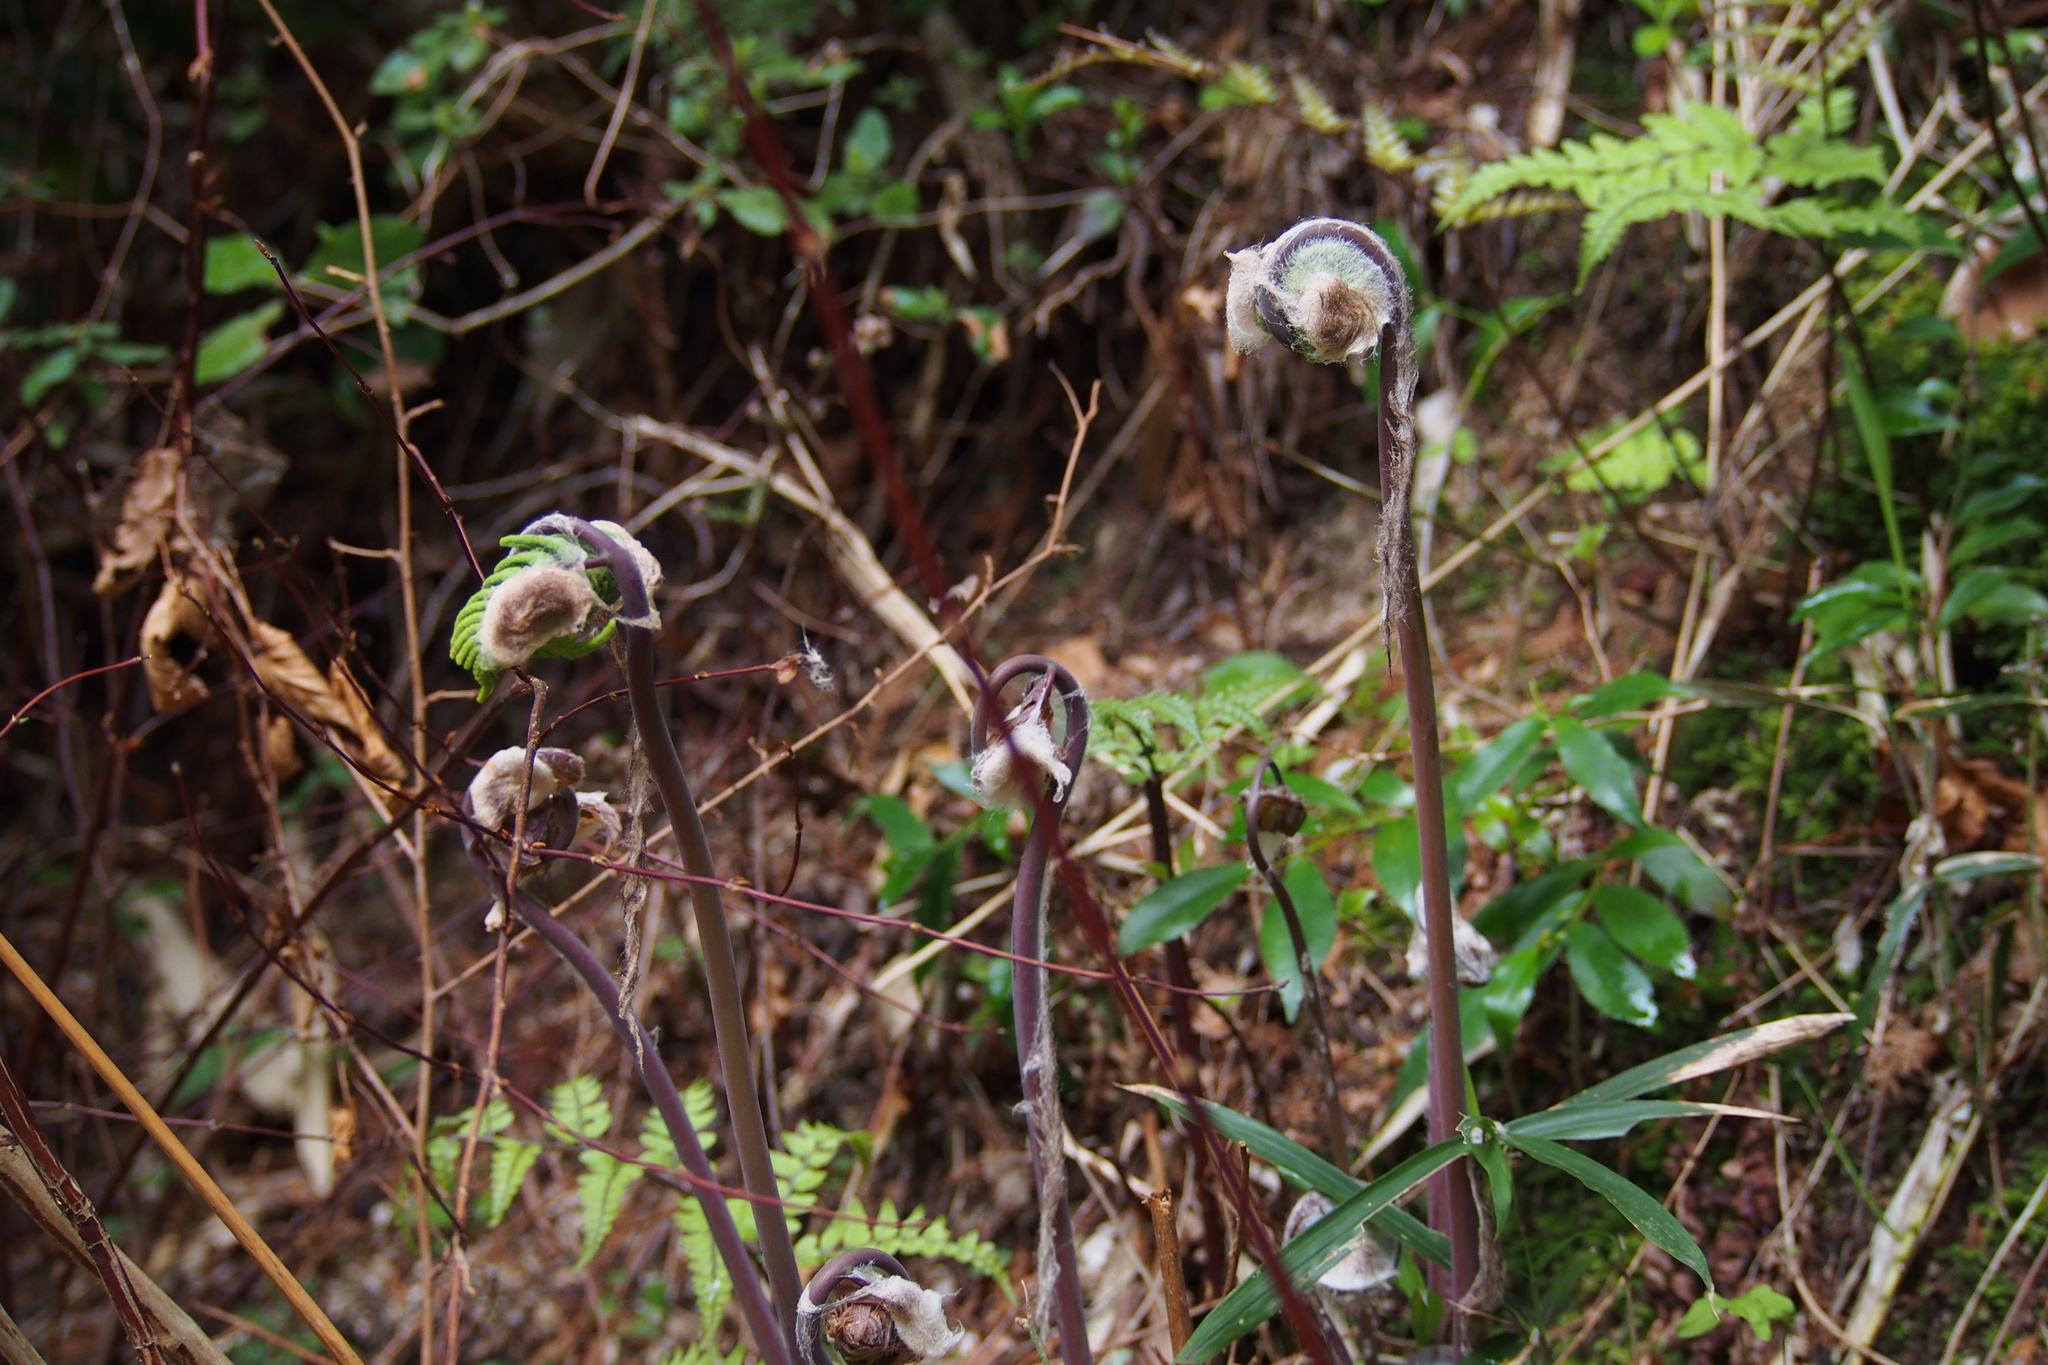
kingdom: Plantae
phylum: Tracheophyta
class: Polypodiopsida
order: Osmundales
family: Osmundaceae
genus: Osmunda
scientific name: Osmunda japonica
